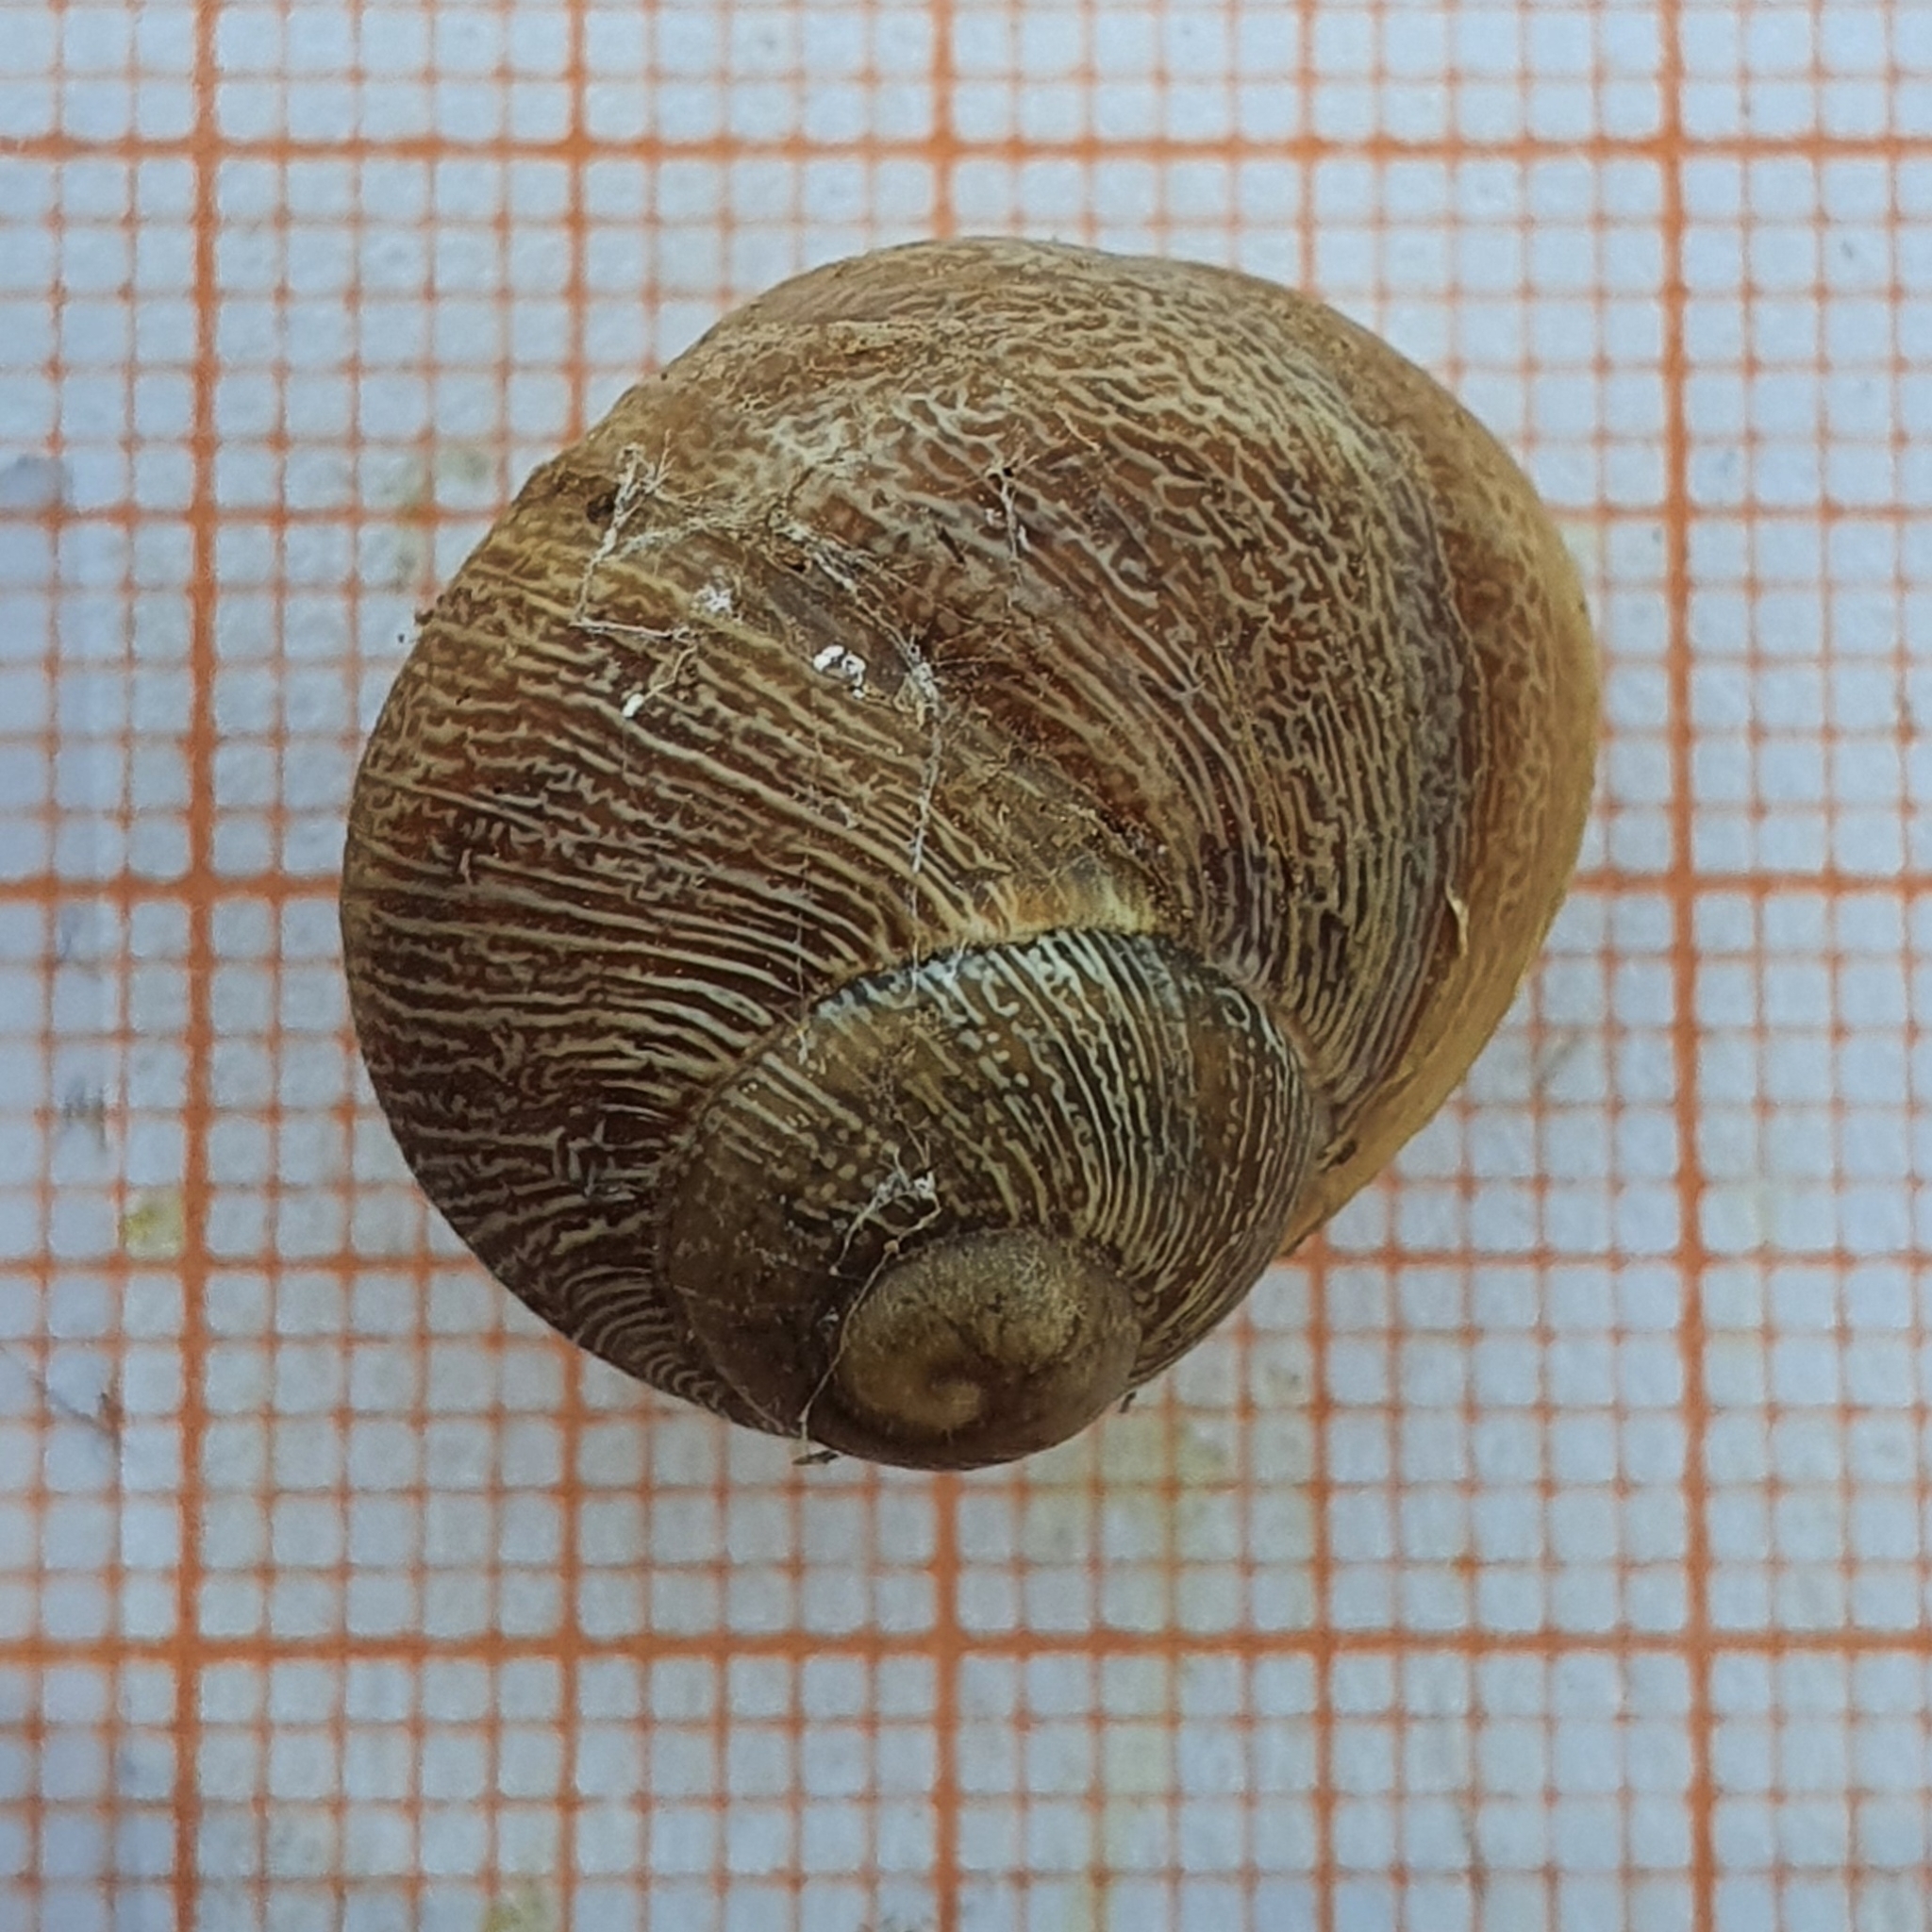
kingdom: Animalia
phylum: Mollusca
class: Gastropoda
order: Stylommatophora
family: Helicidae
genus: Cornu
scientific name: Cornu aspersum
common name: Brown garden snail
